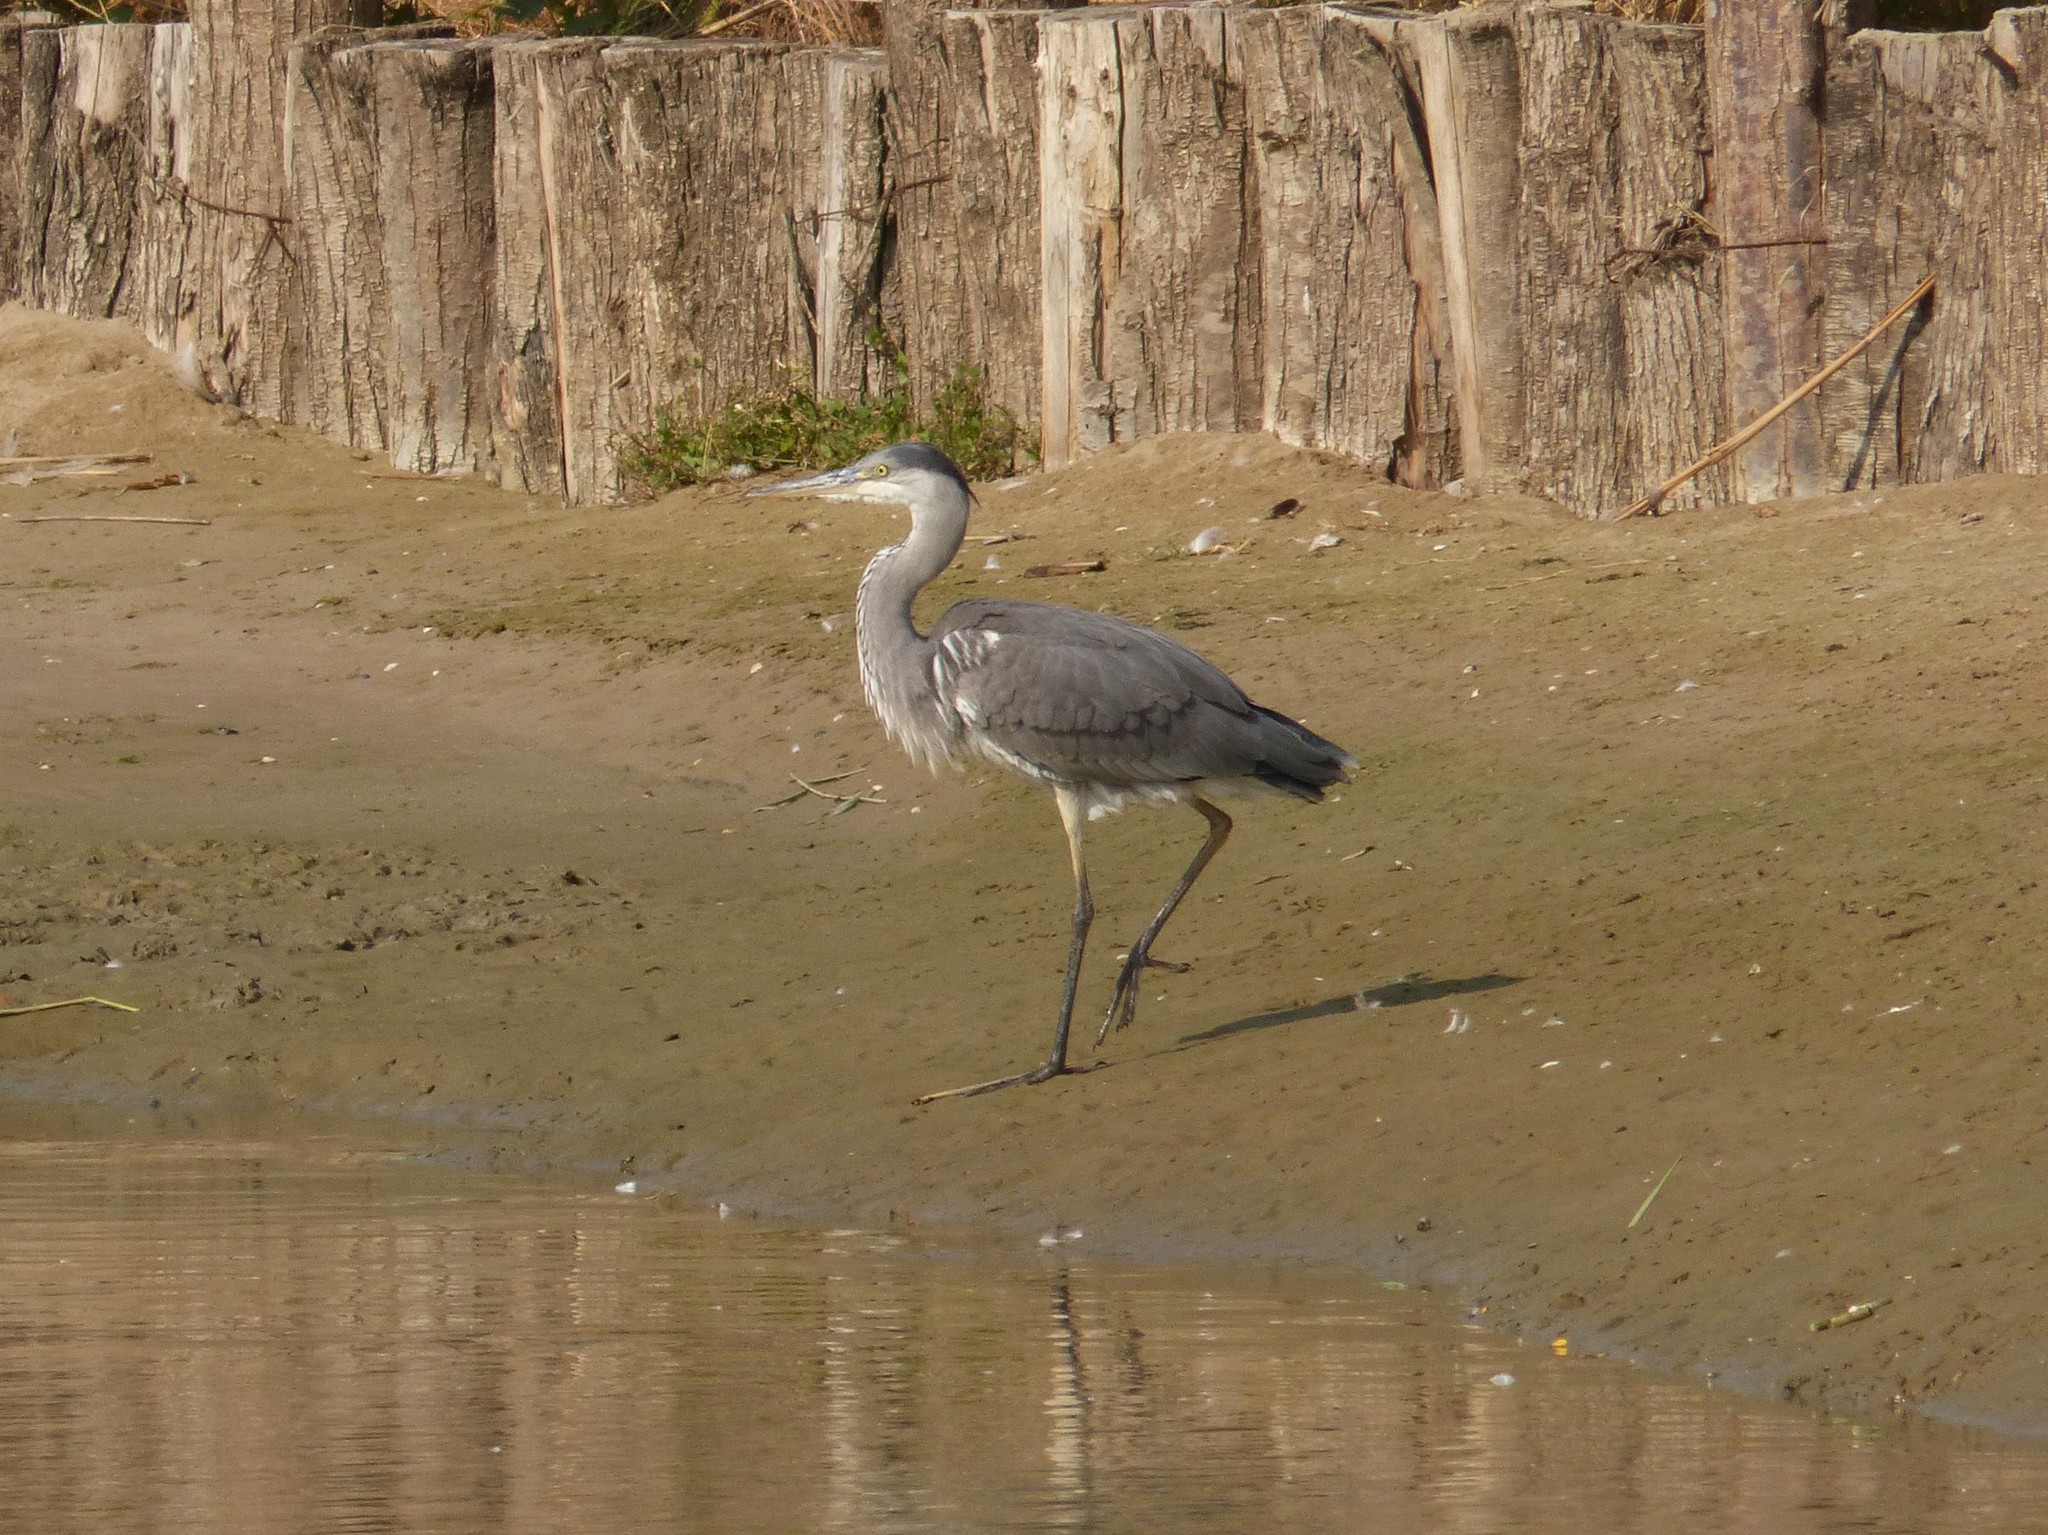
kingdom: Animalia
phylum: Chordata
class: Aves
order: Pelecaniformes
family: Ardeidae
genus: Ardea
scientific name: Ardea cinerea
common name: Grey heron
